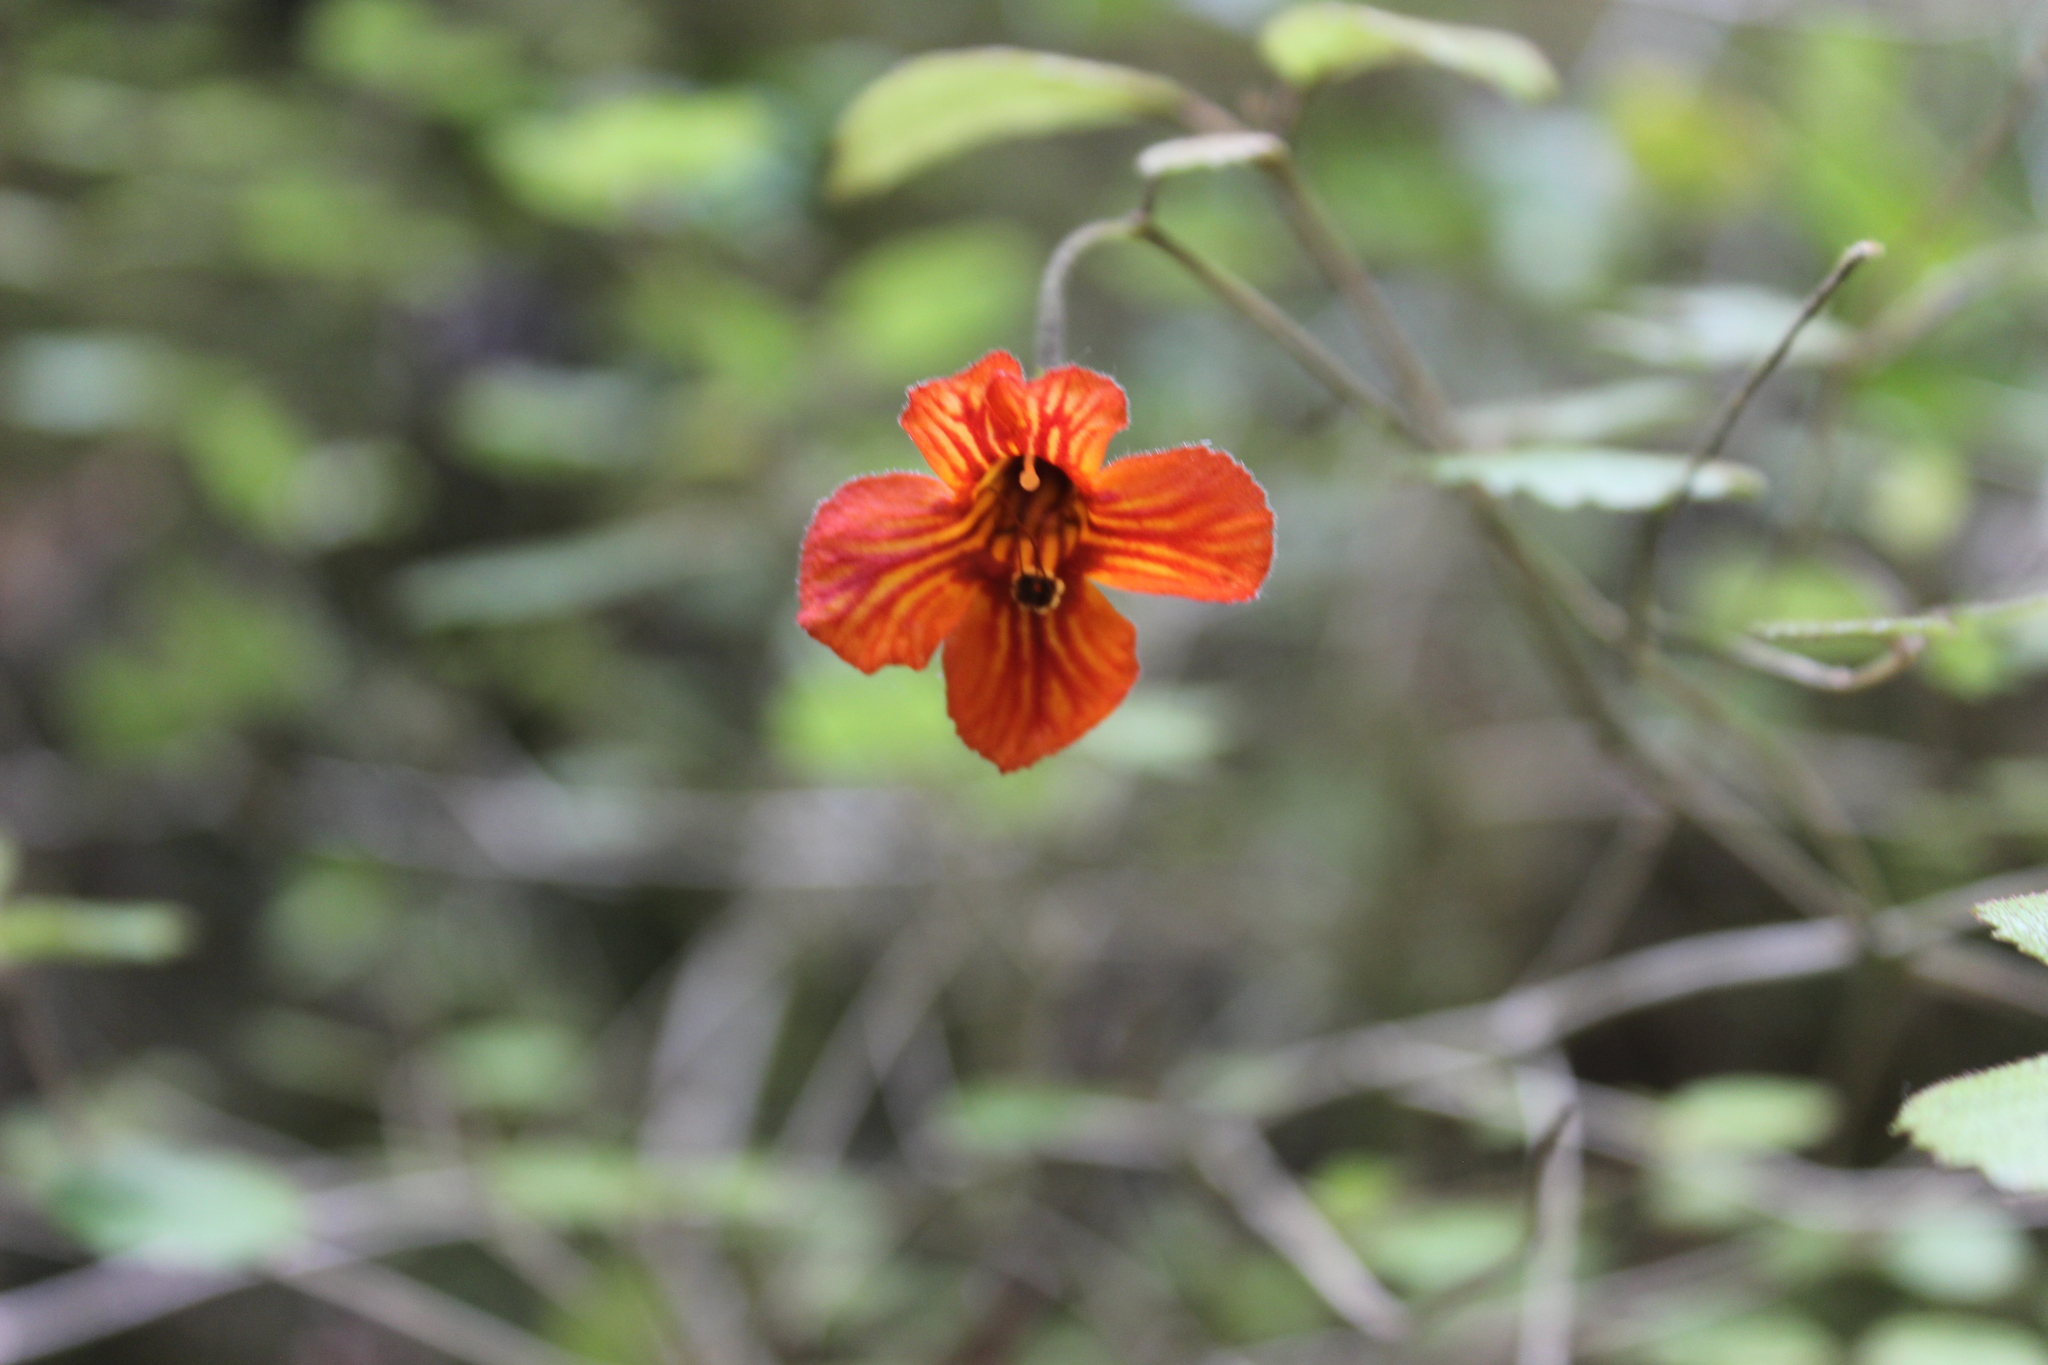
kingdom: Plantae
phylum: Tracheophyta
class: Magnoliopsida
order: Lamiales
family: Gesneriaceae
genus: Rhabdothamnus
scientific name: Rhabdothamnus solandri
